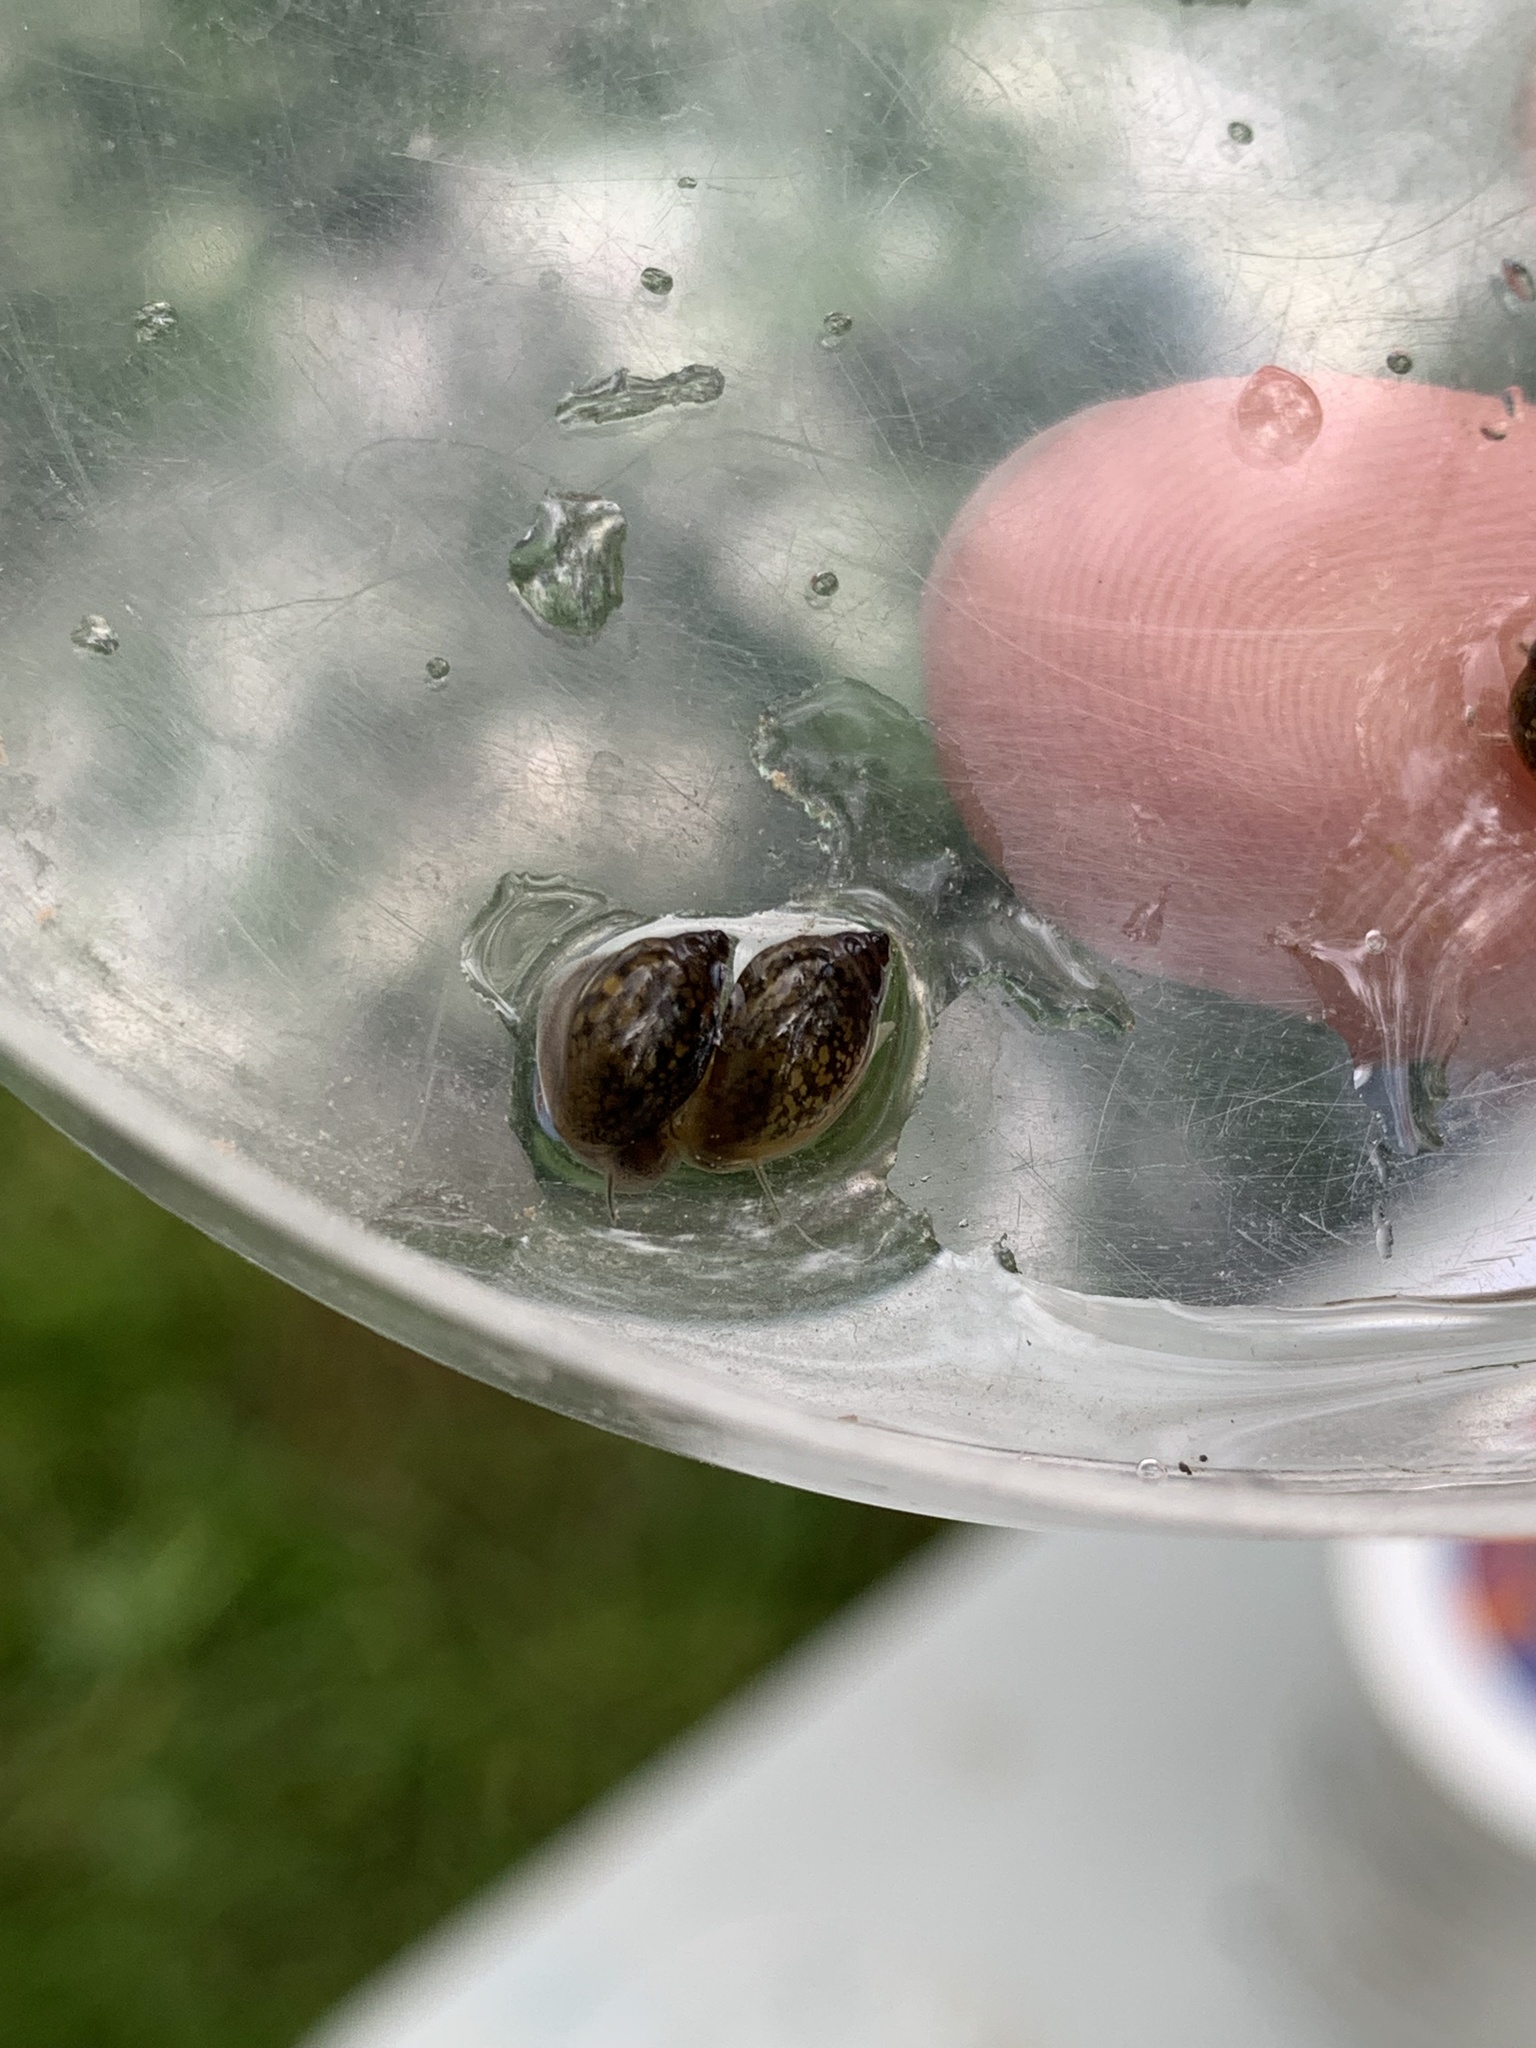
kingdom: Animalia
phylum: Mollusca
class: Gastropoda
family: Physidae
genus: Physella
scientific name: Physella acuta
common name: European physa
